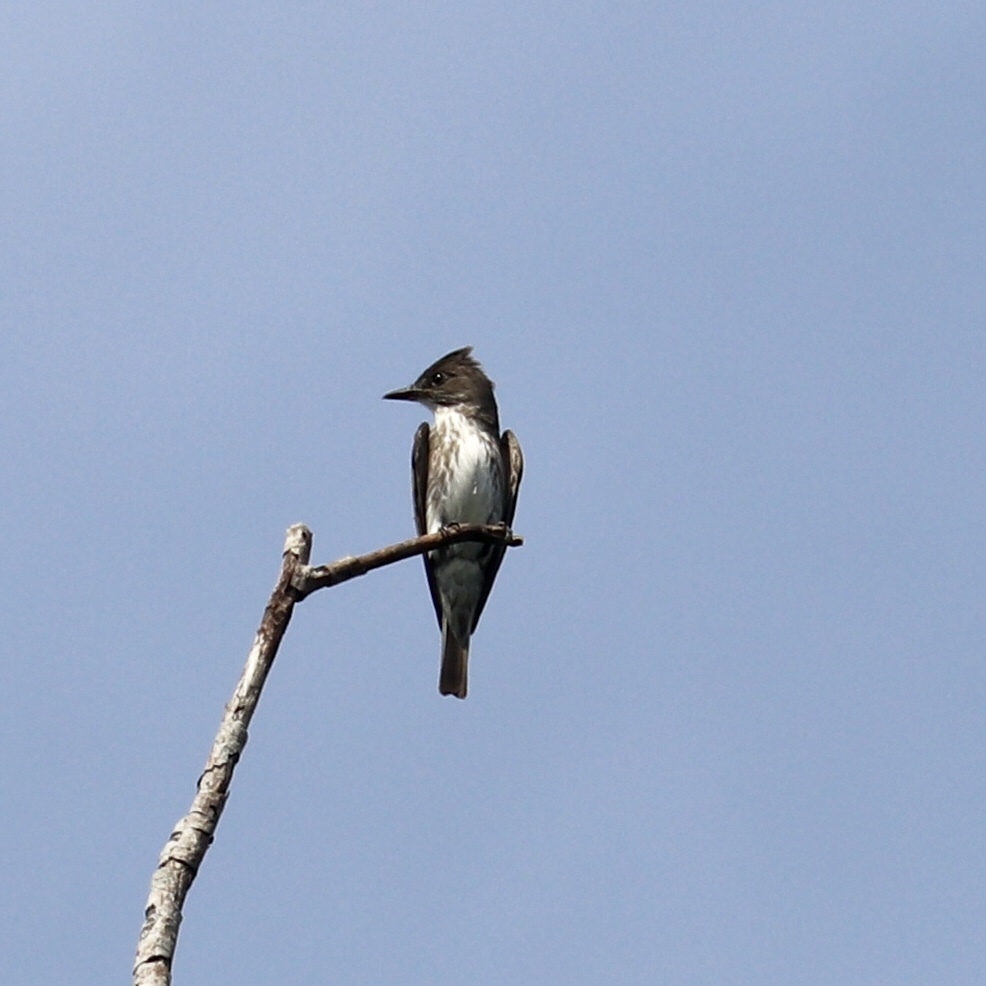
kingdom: Animalia
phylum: Chordata
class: Aves
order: Passeriformes
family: Tyrannidae
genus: Contopus
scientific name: Contopus cooperi
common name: Olive-sided flycatcher
